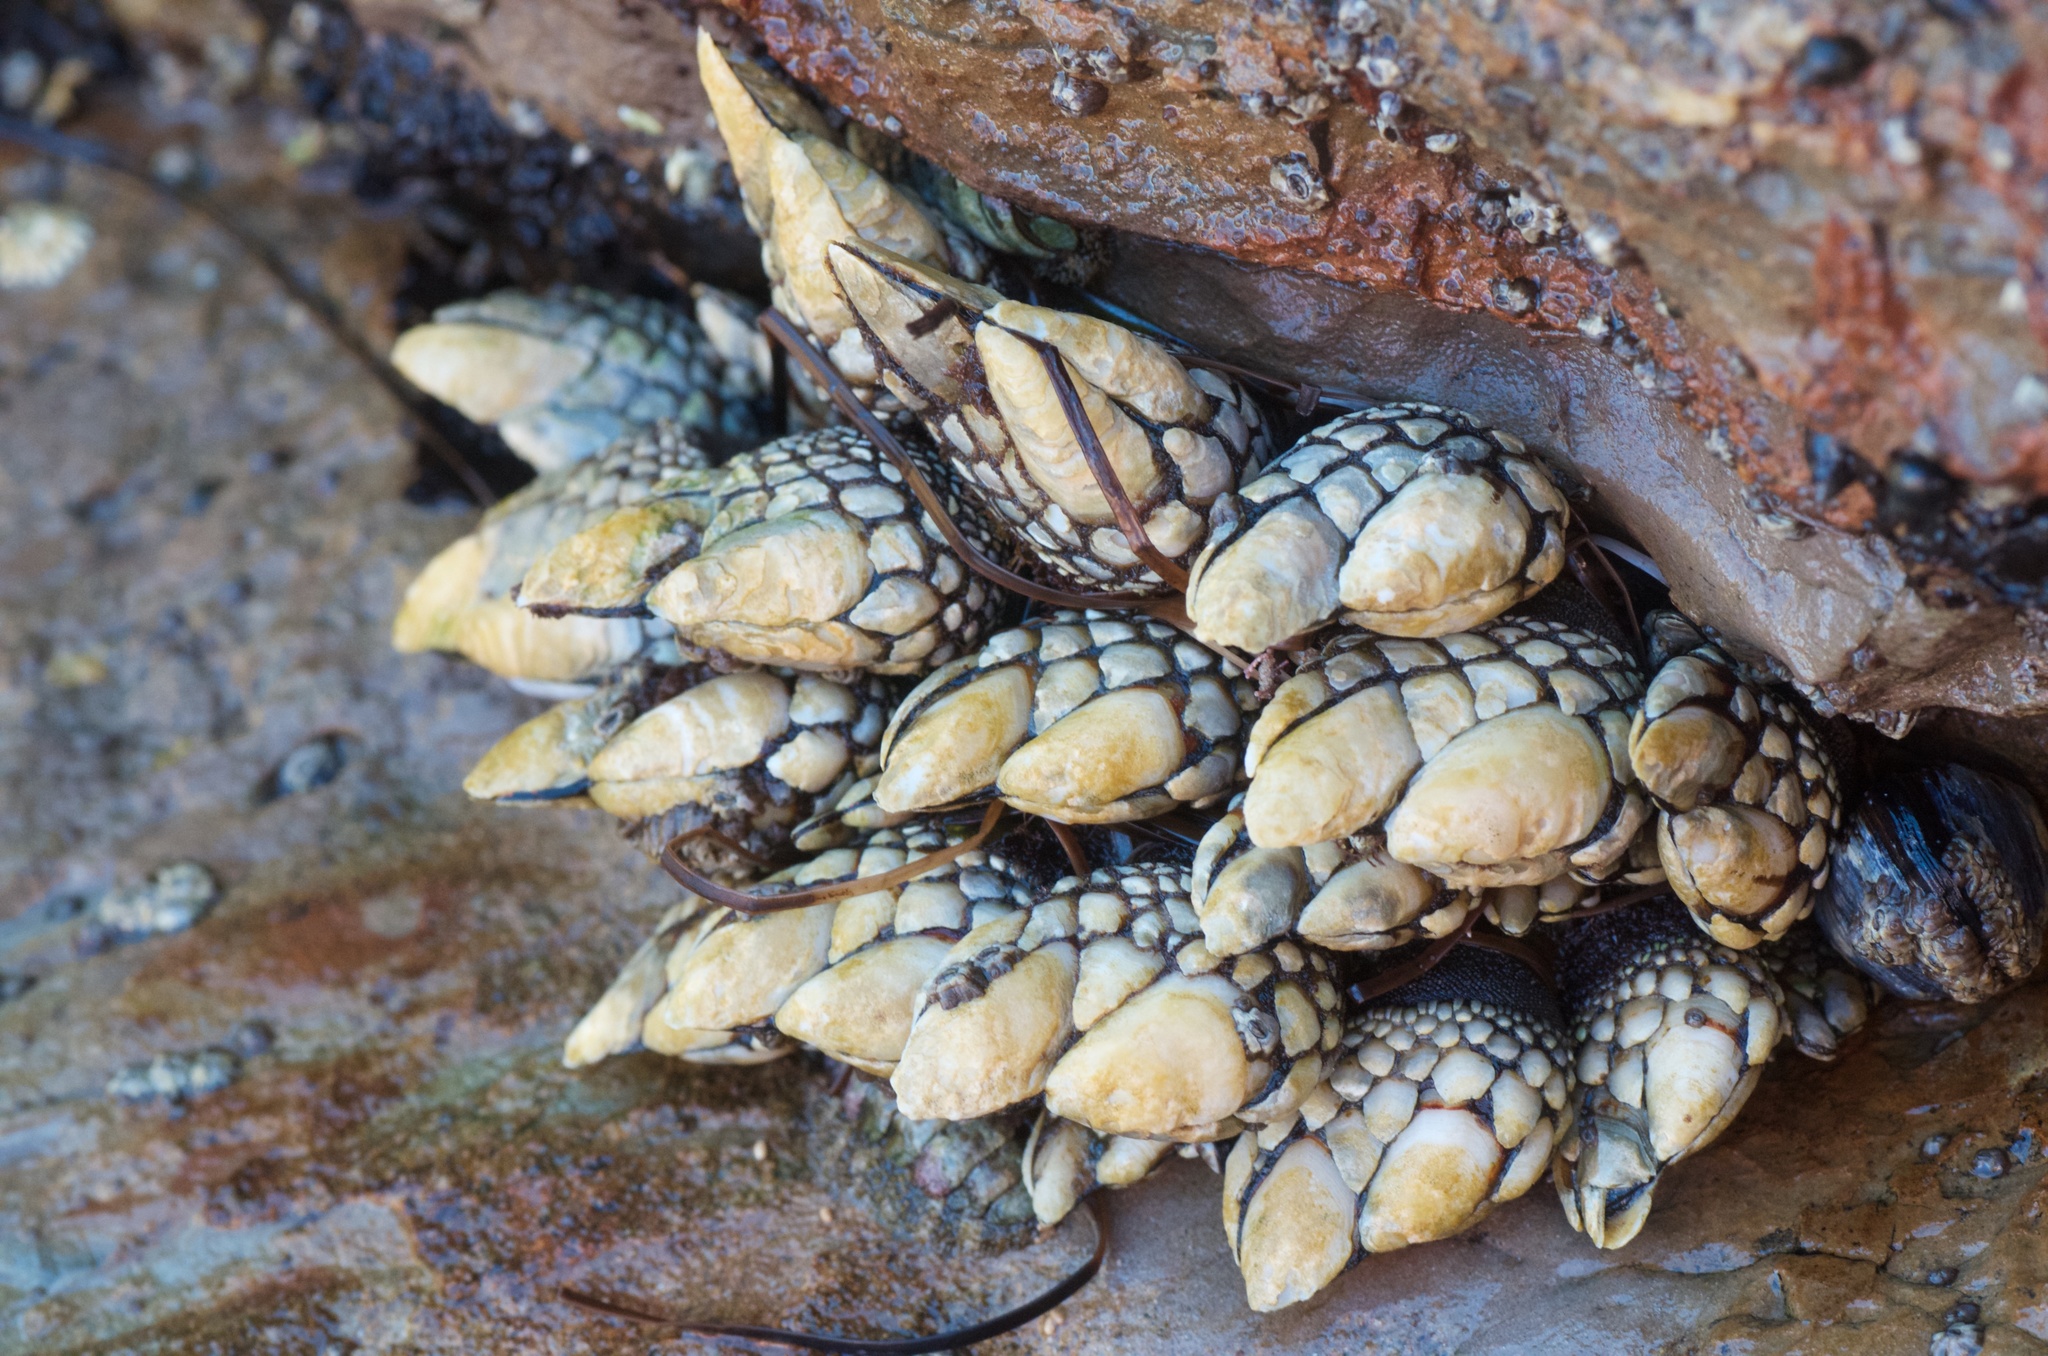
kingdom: Animalia
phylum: Arthropoda
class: Maxillopoda
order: Pedunculata
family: Pollicipedidae
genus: Pollicipes
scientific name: Pollicipes polymerus
